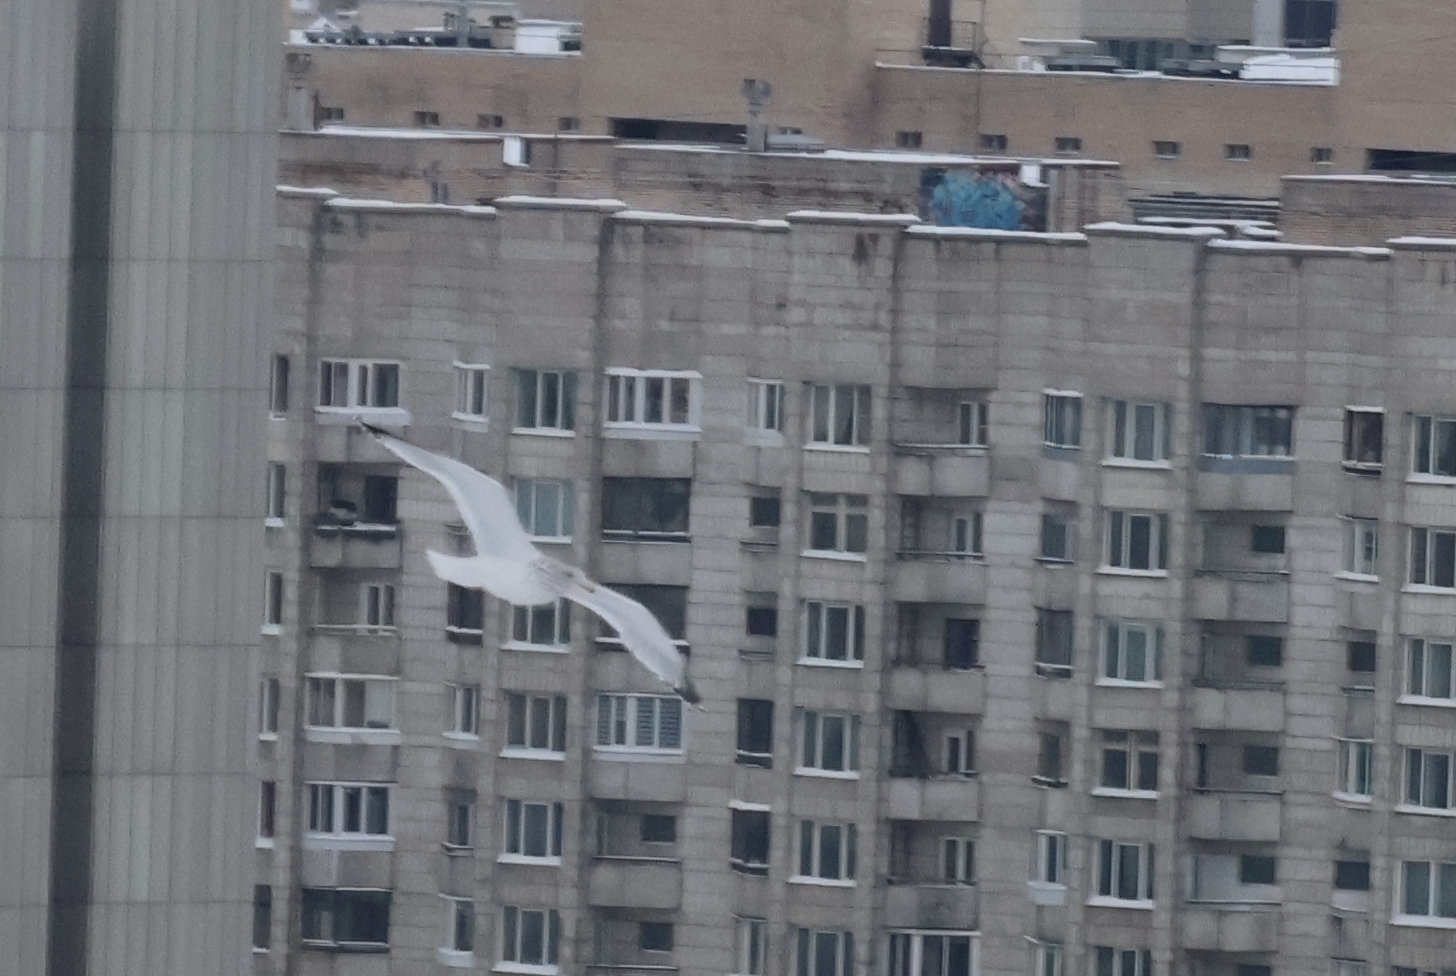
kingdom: Animalia
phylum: Chordata
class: Aves
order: Charadriiformes
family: Laridae
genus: Larus
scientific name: Larus argentatus
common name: Herring gull
